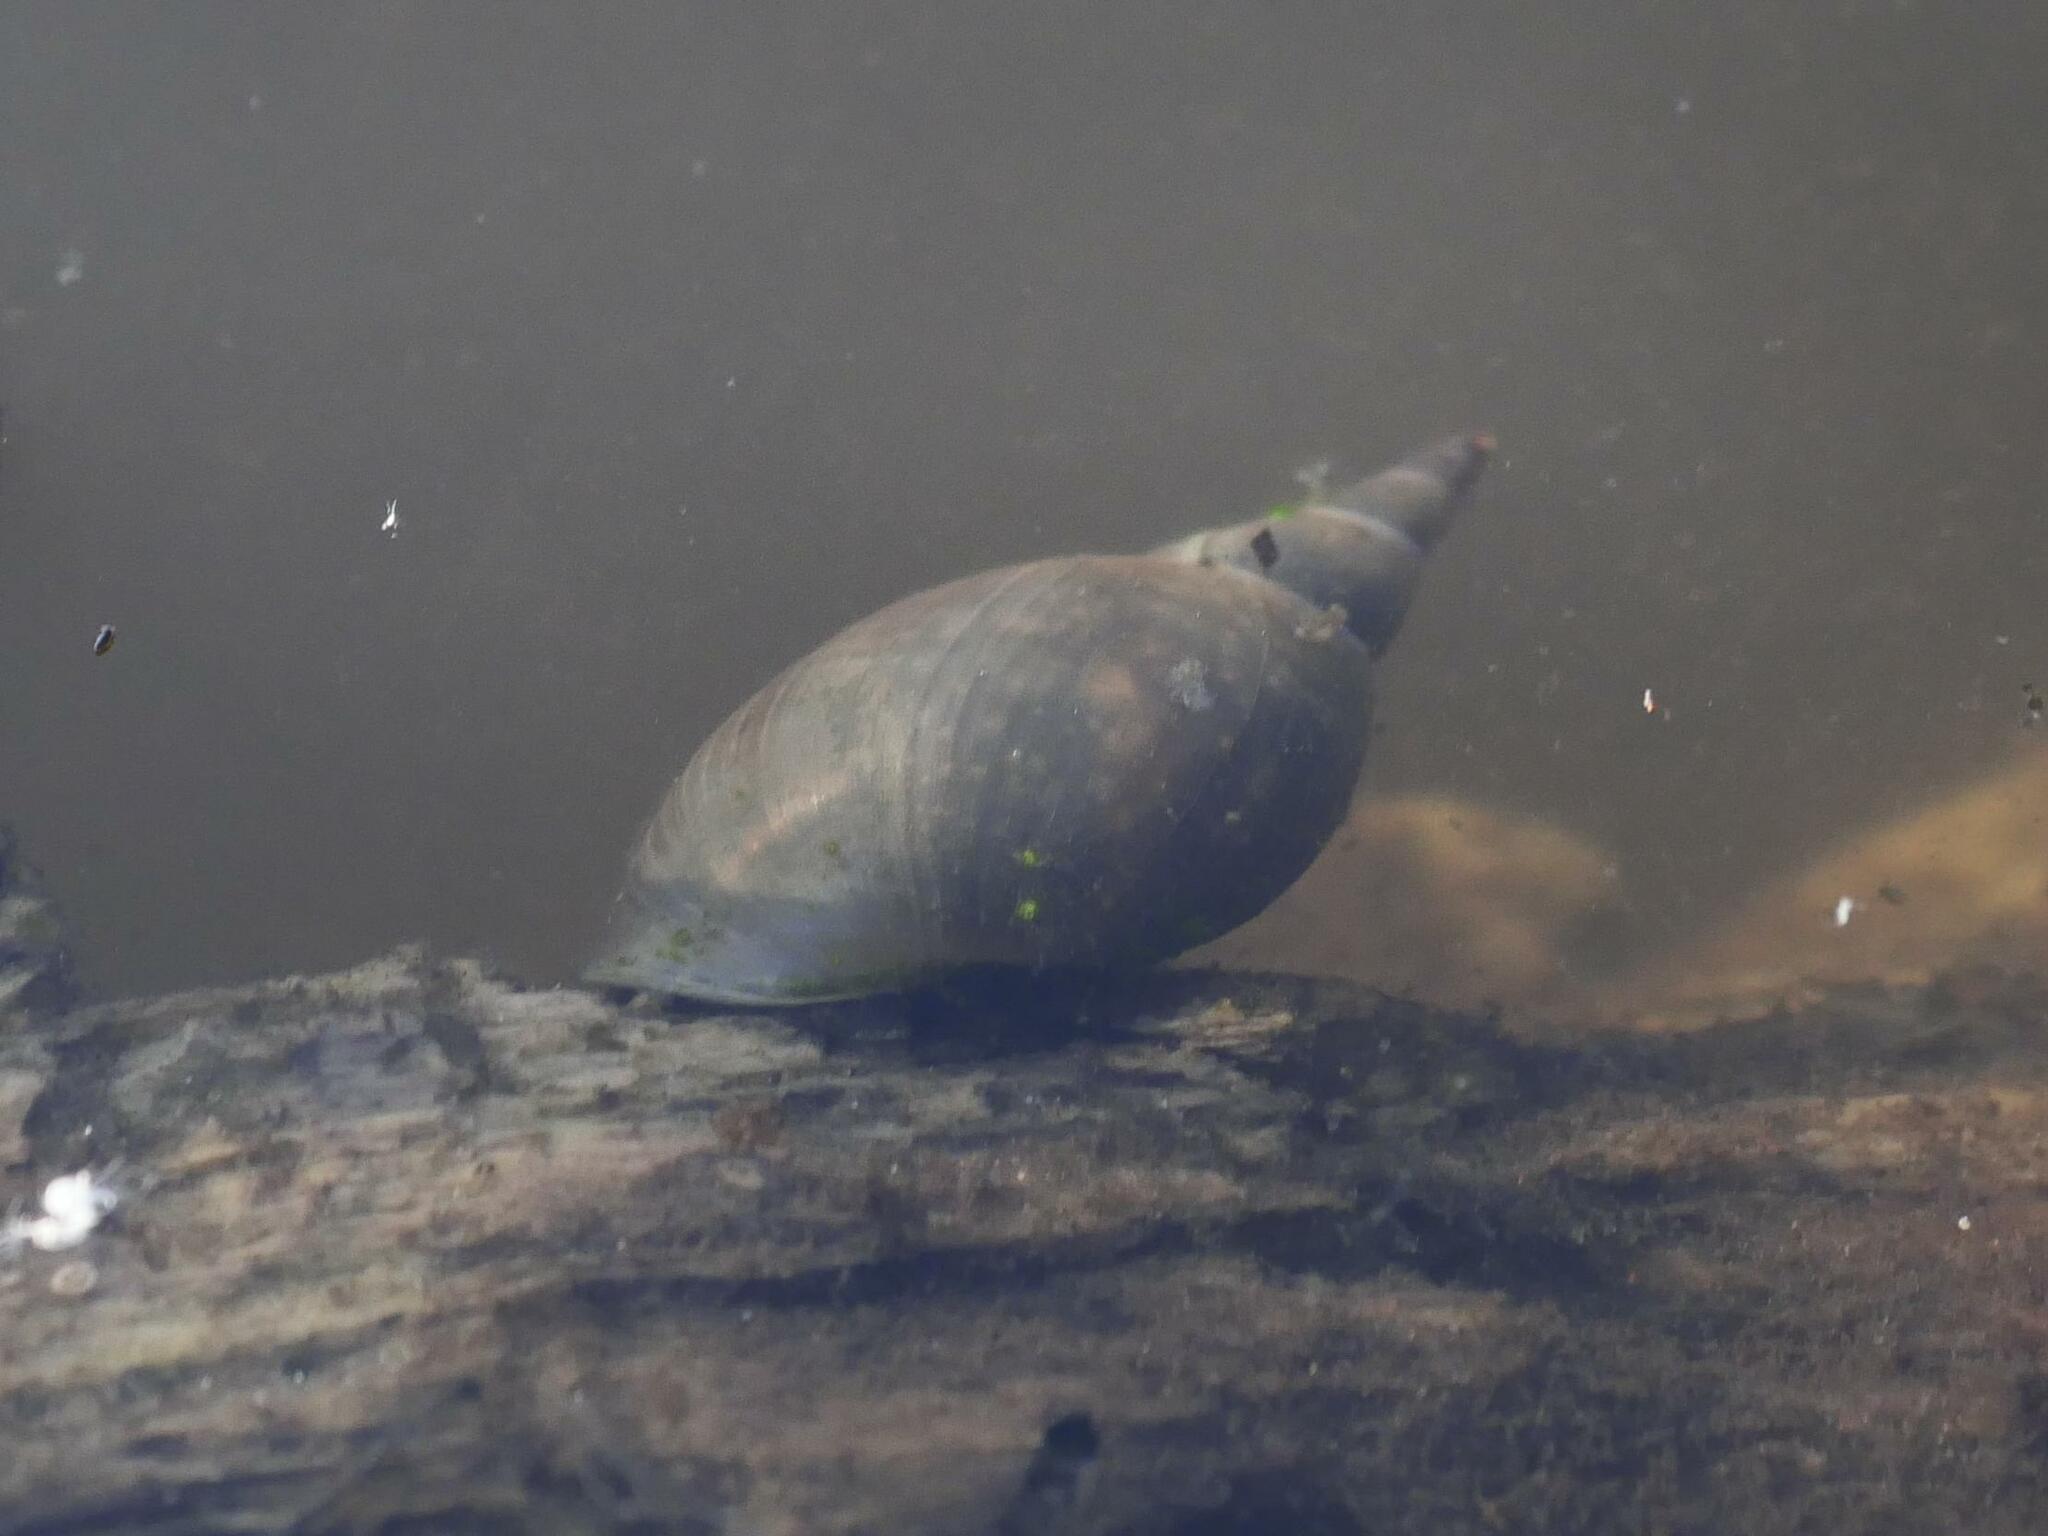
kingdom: Animalia
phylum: Mollusca
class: Gastropoda
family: Lymnaeidae
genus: Lymnaea
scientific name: Lymnaea stagnalis
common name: Great pond snail
